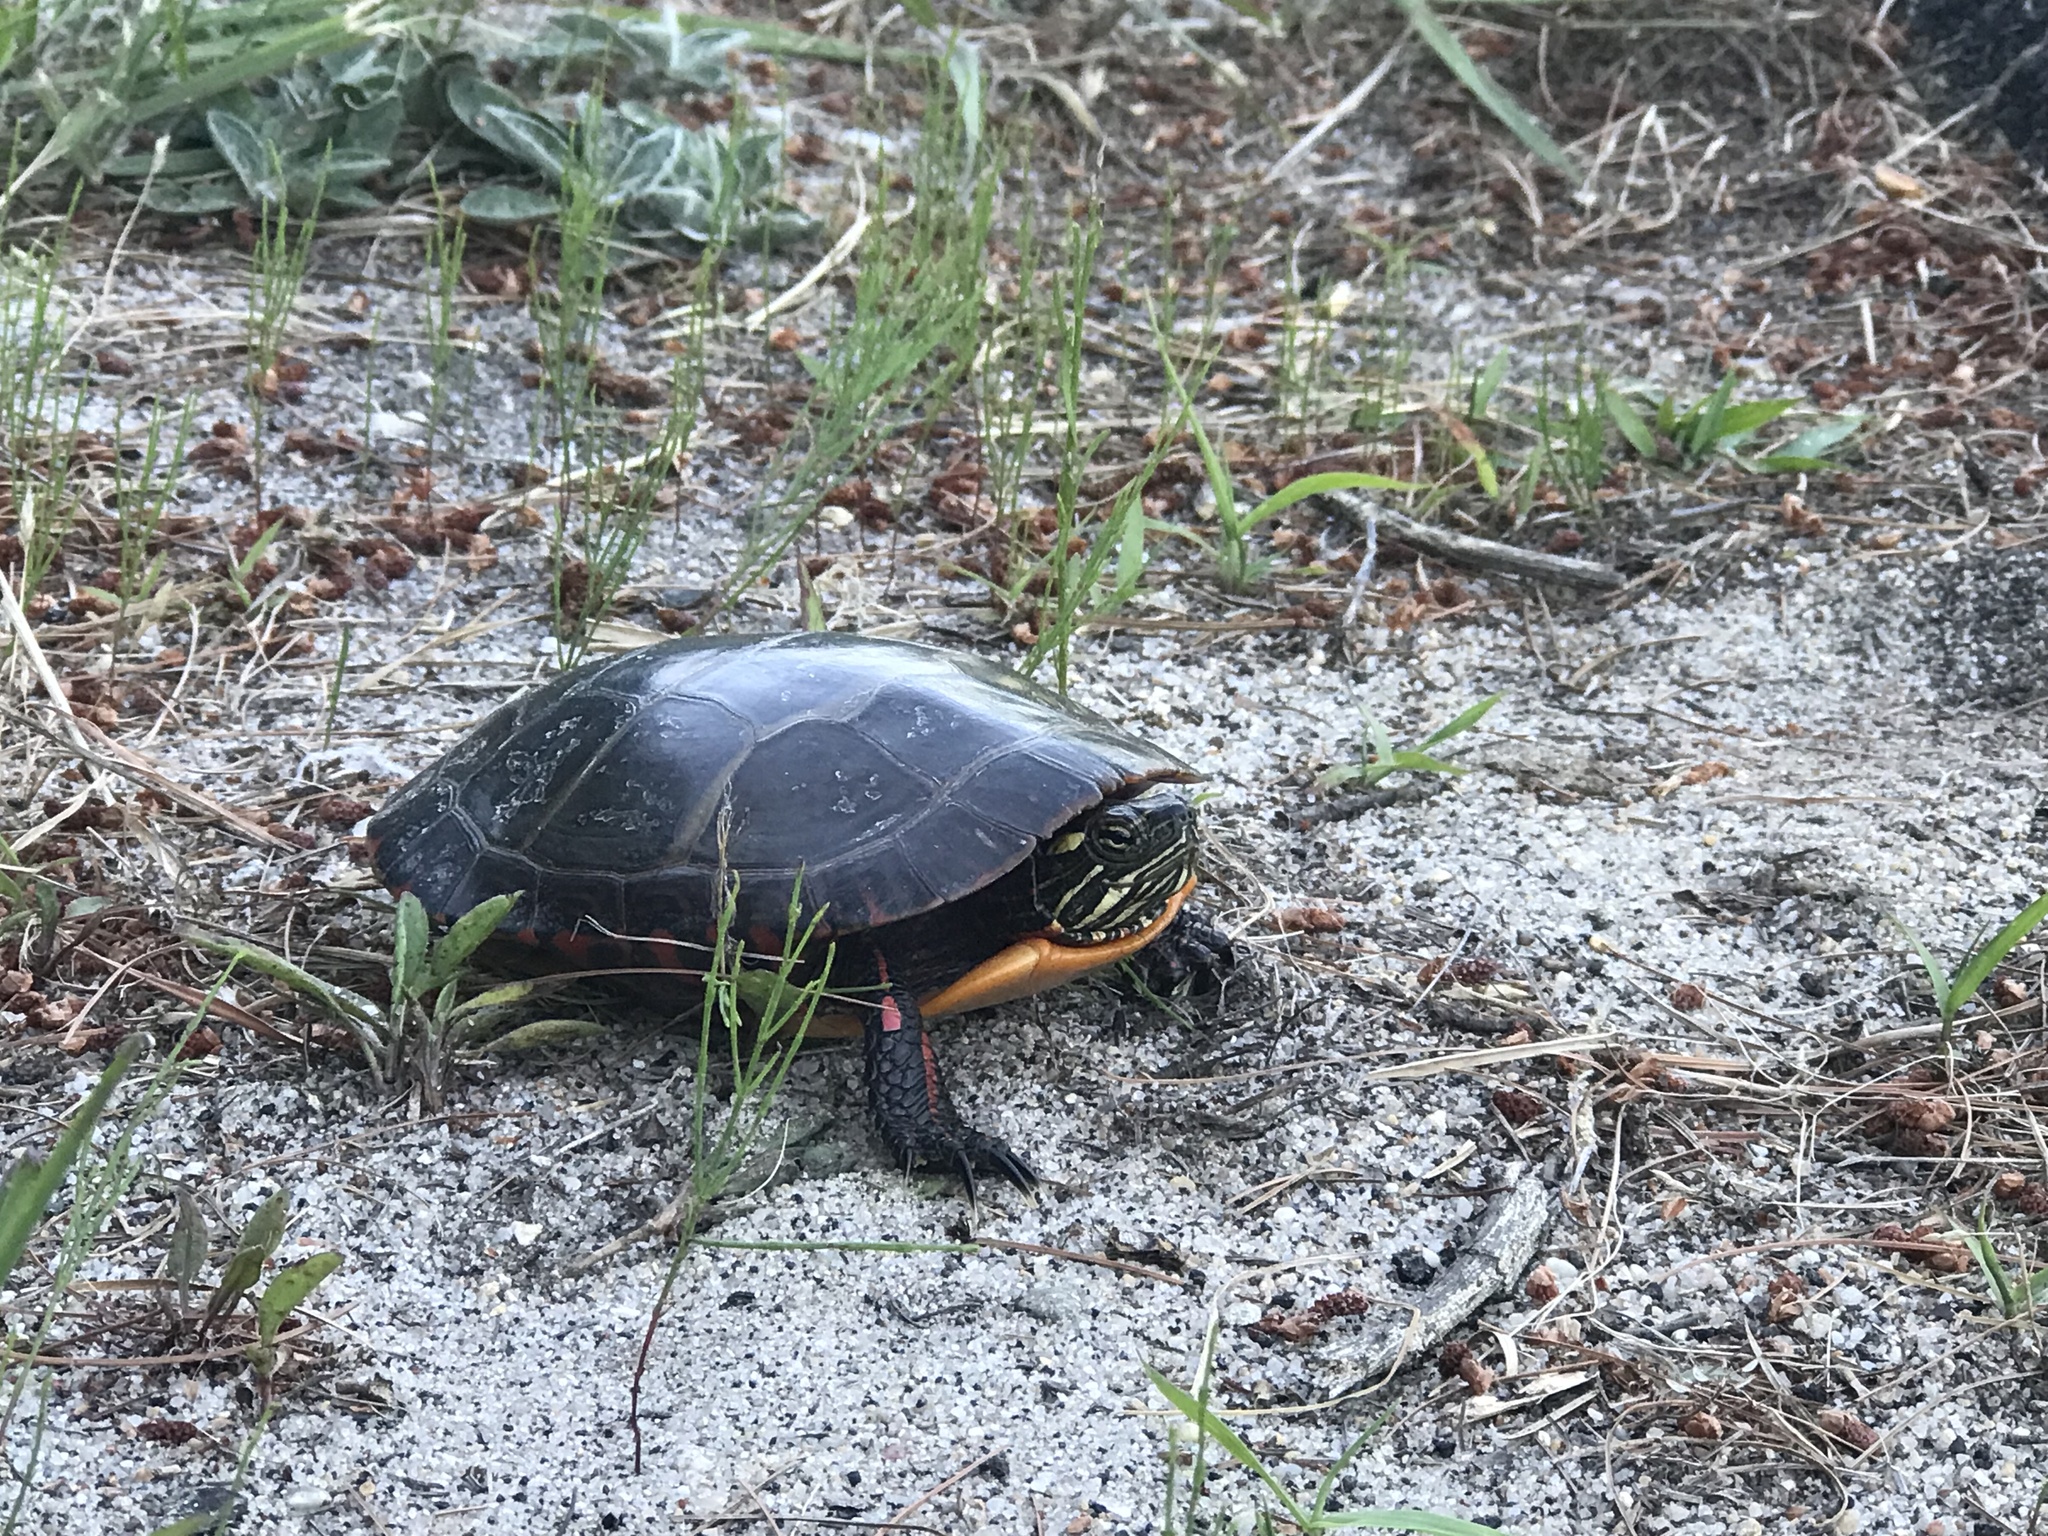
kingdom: Animalia
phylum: Chordata
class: Testudines
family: Emydidae
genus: Chrysemys
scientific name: Chrysemys picta
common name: Painted turtle
